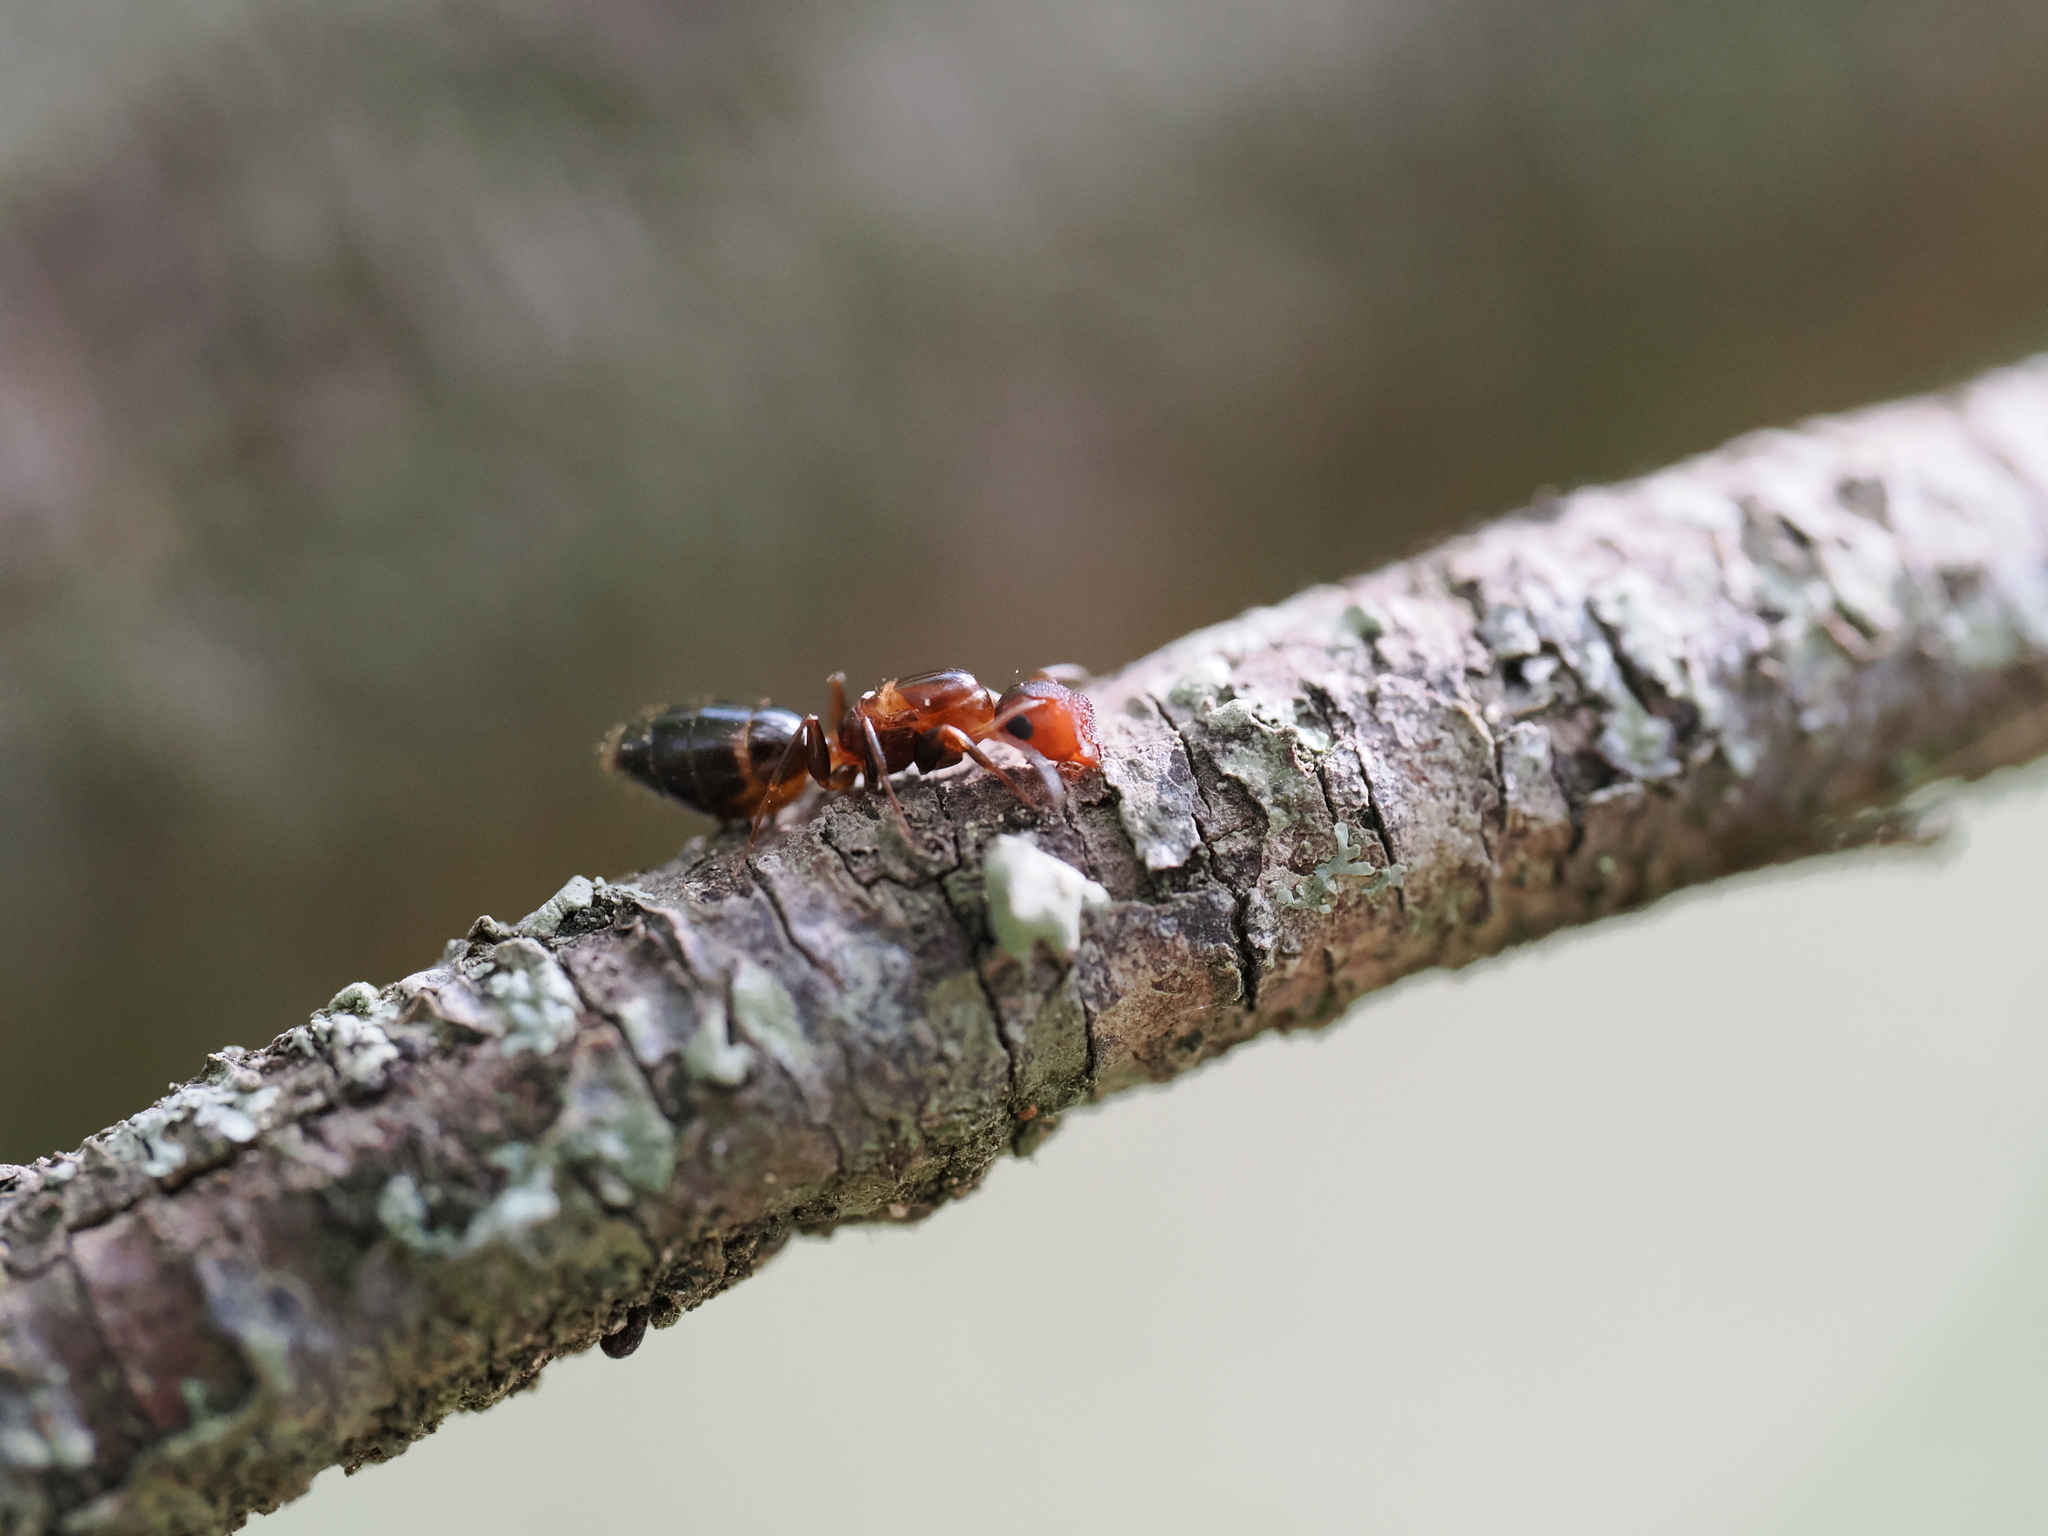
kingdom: Animalia
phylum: Arthropoda
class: Insecta
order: Hymenoptera
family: Formicidae
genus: Camponotus
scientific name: Camponotus truncatus
